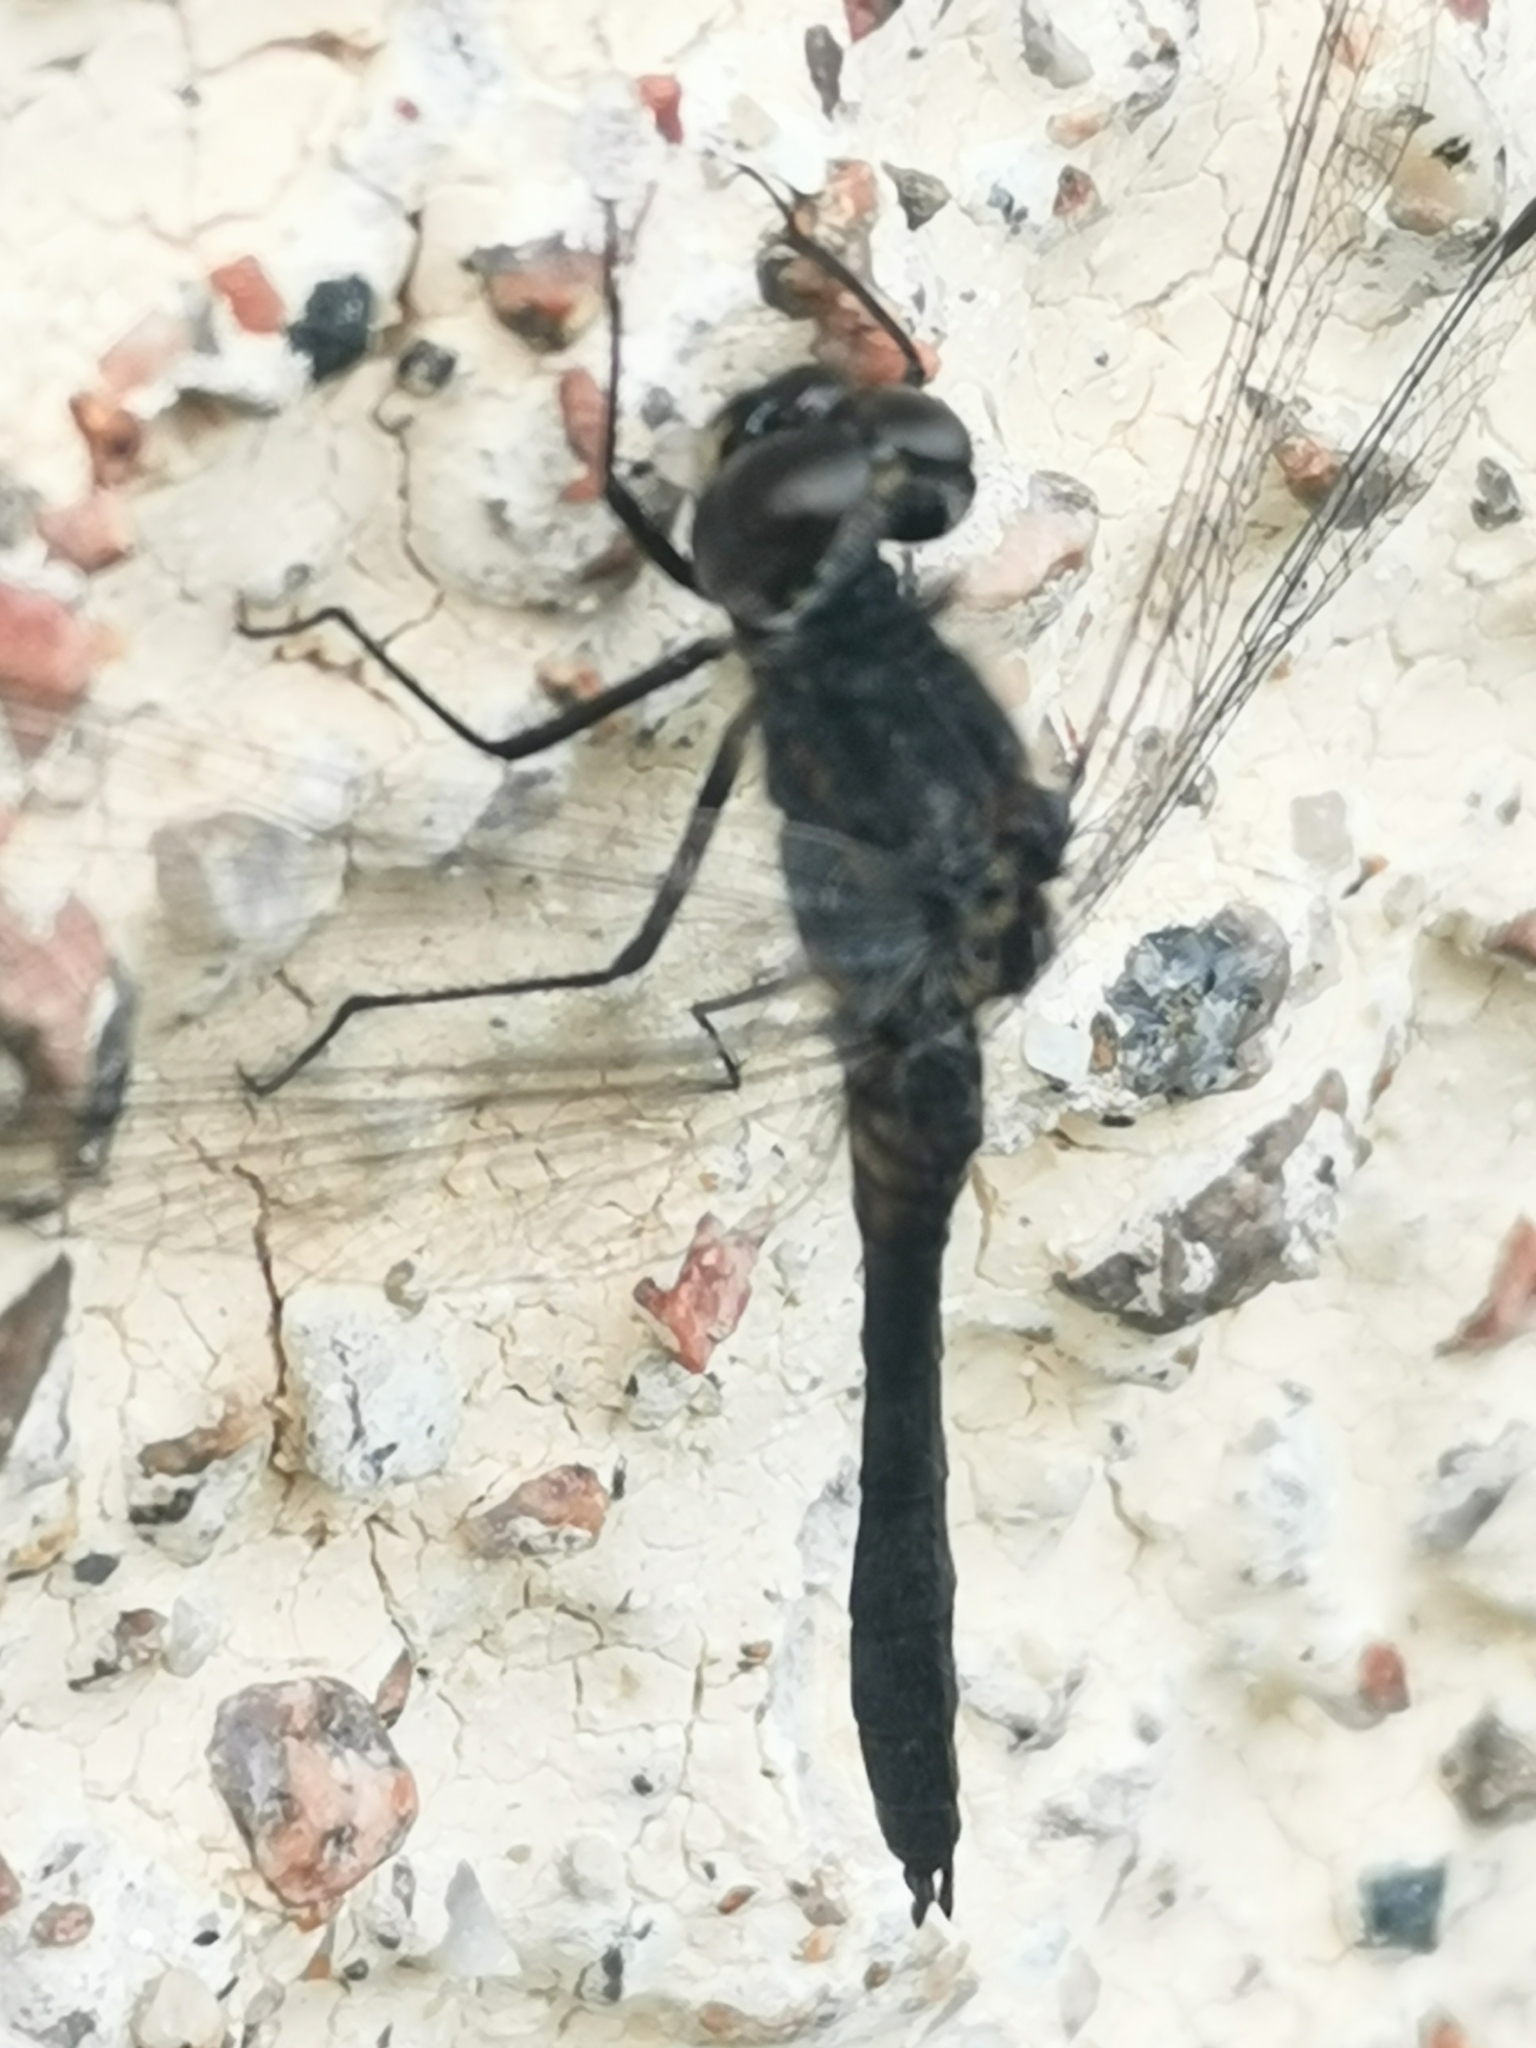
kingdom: Animalia
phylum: Arthropoda
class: Insecta
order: Odonata
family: Libellulidae
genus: Sympetrum
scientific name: Sympetrum danae
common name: Black darter
